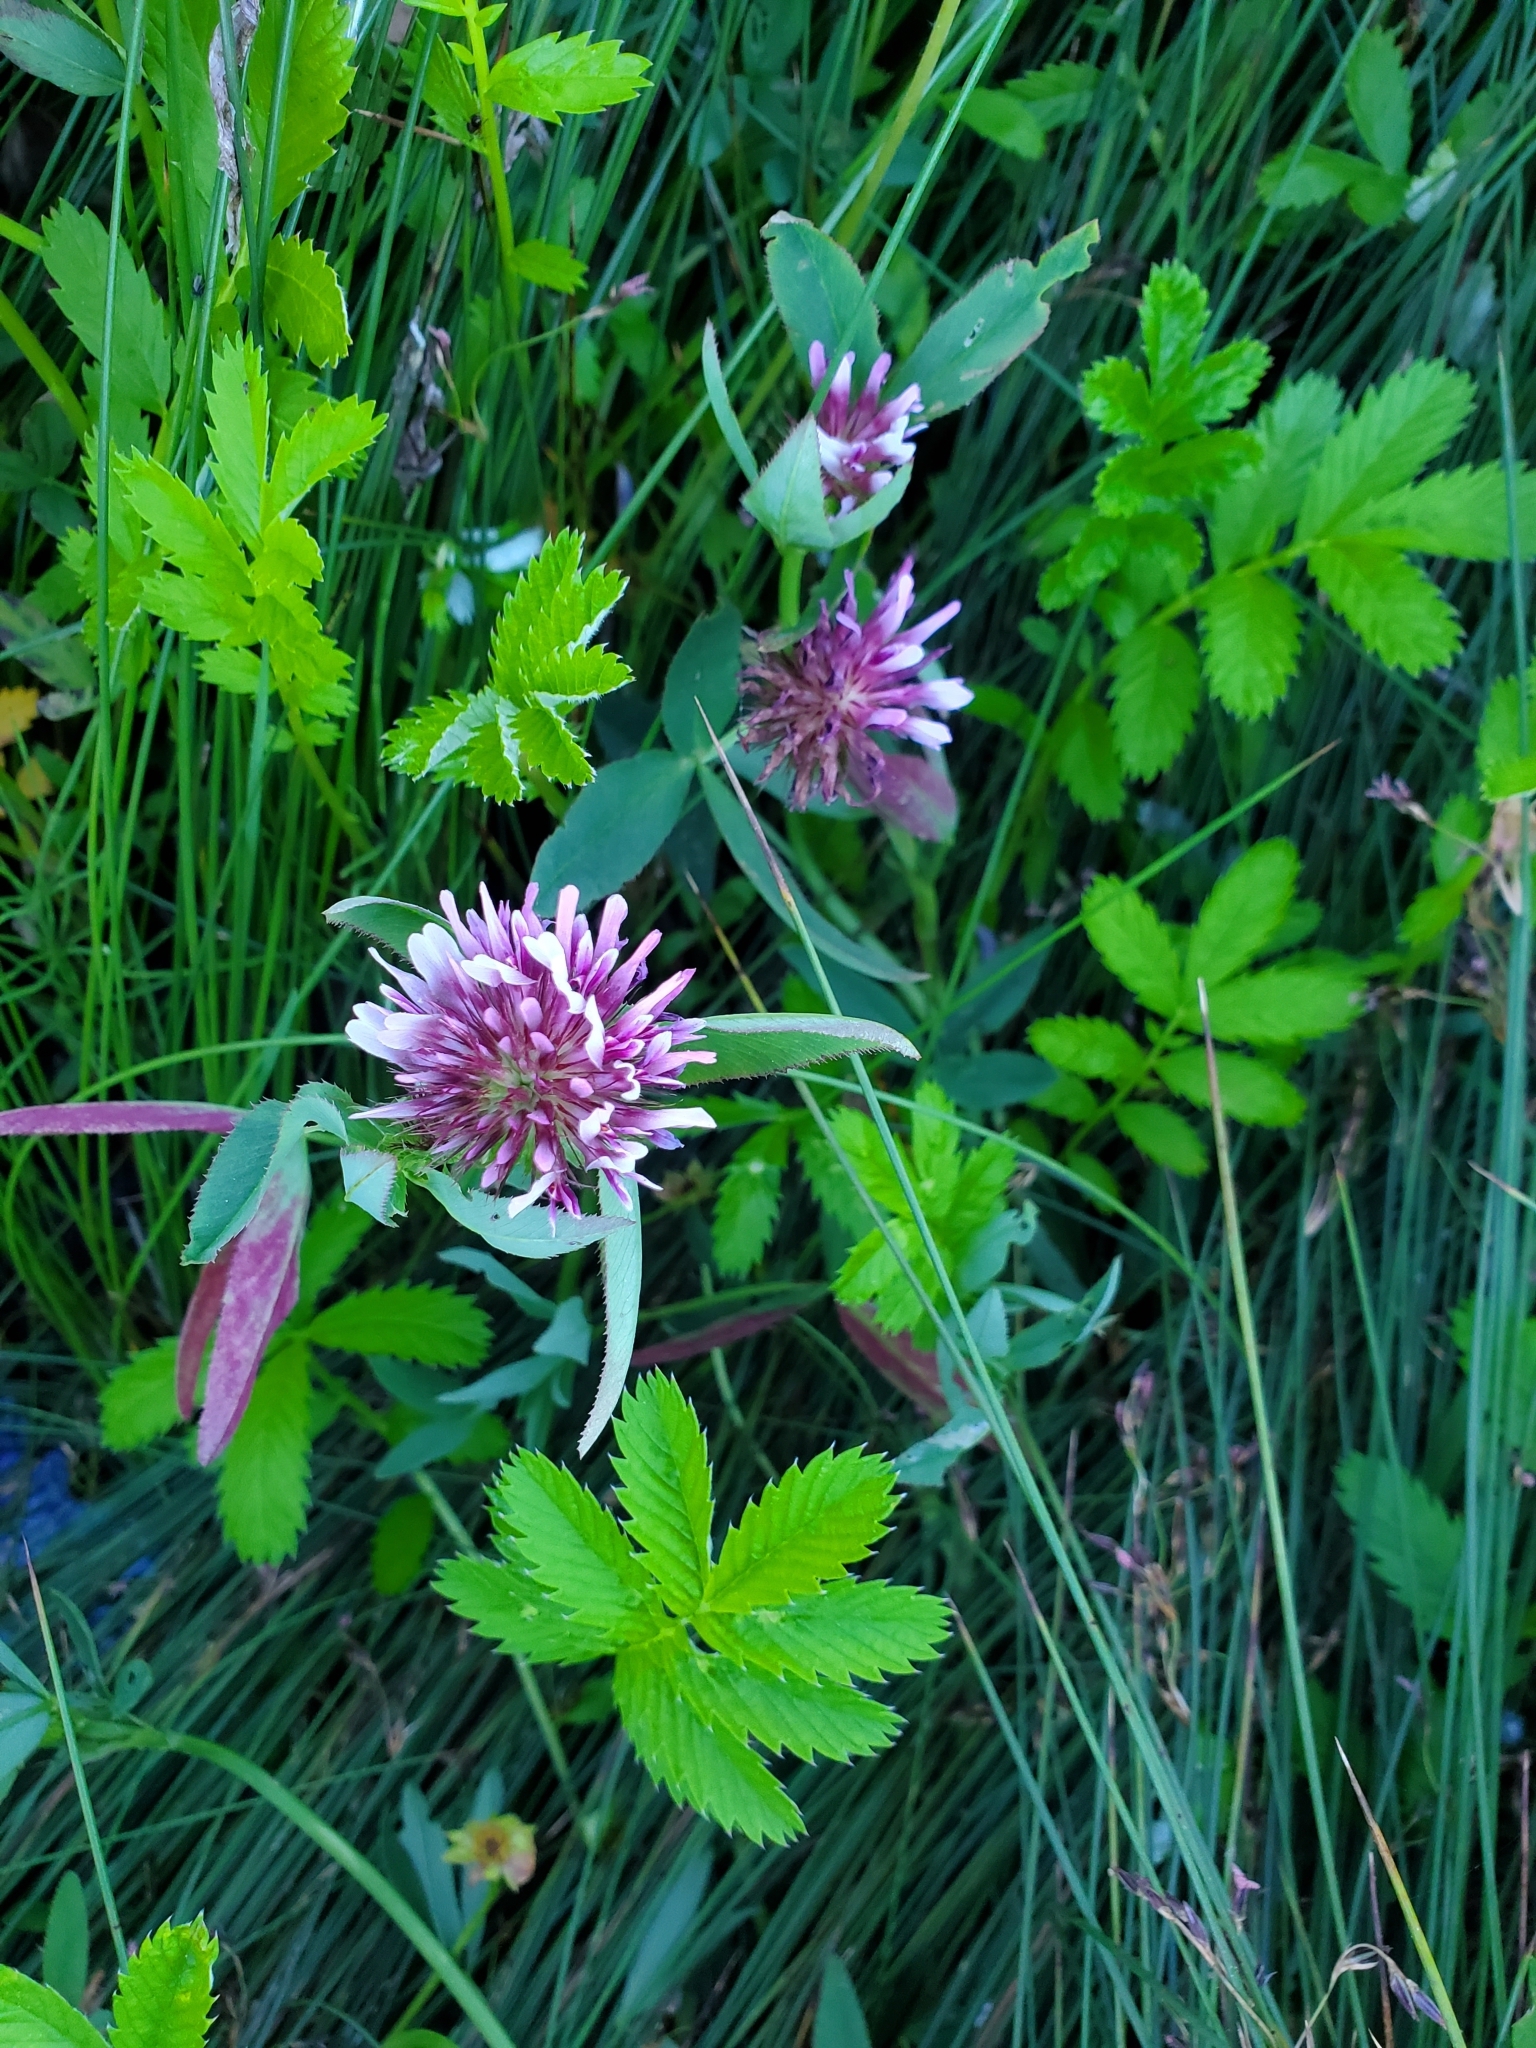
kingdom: Plantae
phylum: Tracheophyta
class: Magnoliopsida
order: Fabales
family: Fabaceae
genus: Trifolium
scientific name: Trifolium wormskioldii
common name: Springbank clover
